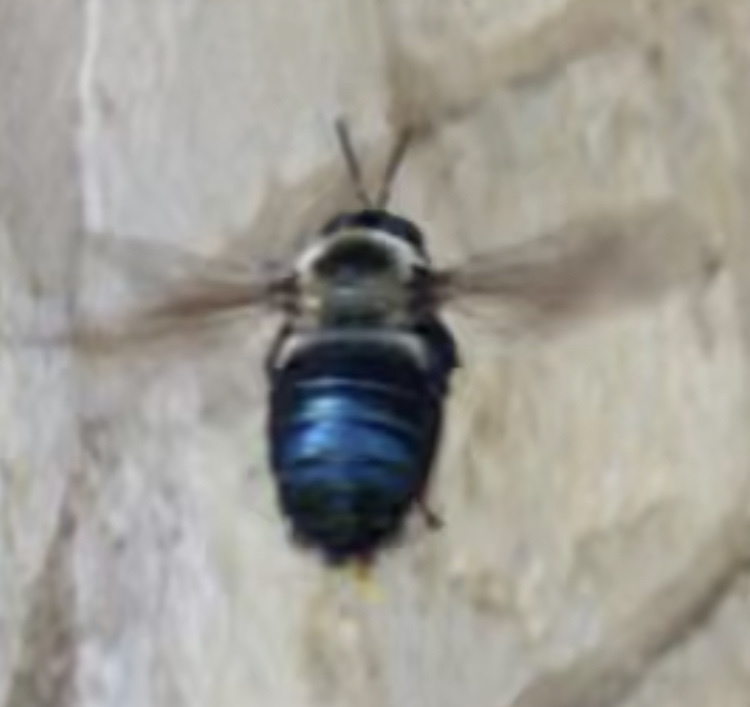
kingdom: Animalia
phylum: Arthropoda
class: Insecta
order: Hymenoptera
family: Apidae
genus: Xylocopa
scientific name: Xylocopa virginica
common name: Carpenter bee
